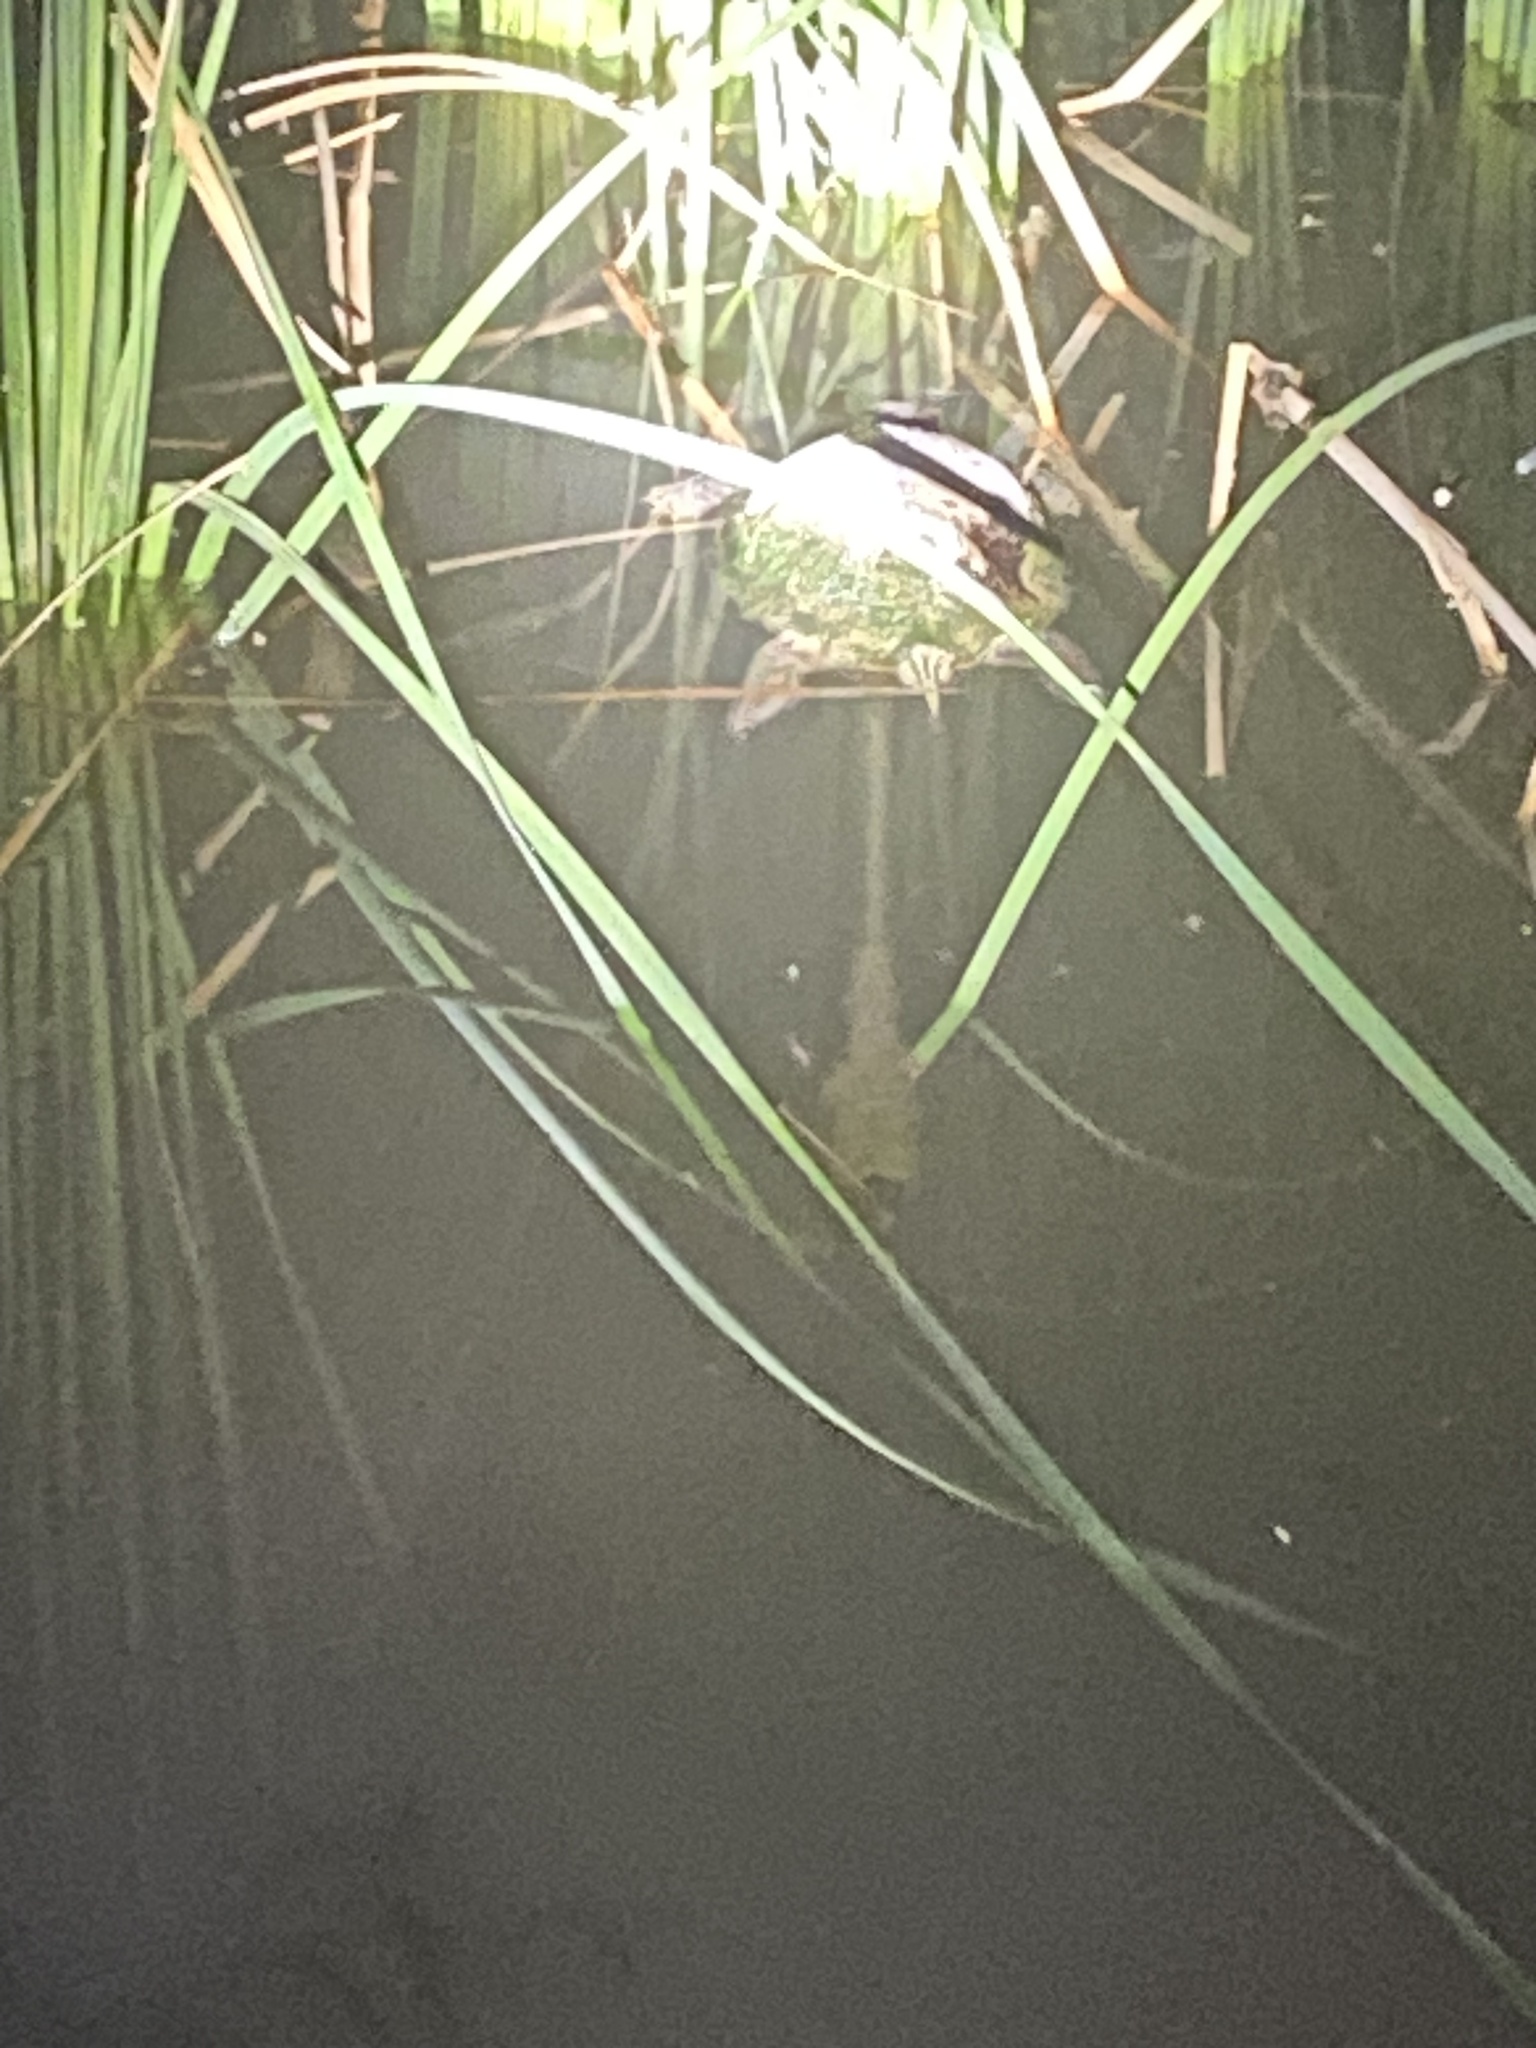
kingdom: Animalia
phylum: Chordata
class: Testudines
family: Emydidae
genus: Trachemys
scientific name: Trachemys scripta
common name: Slider
